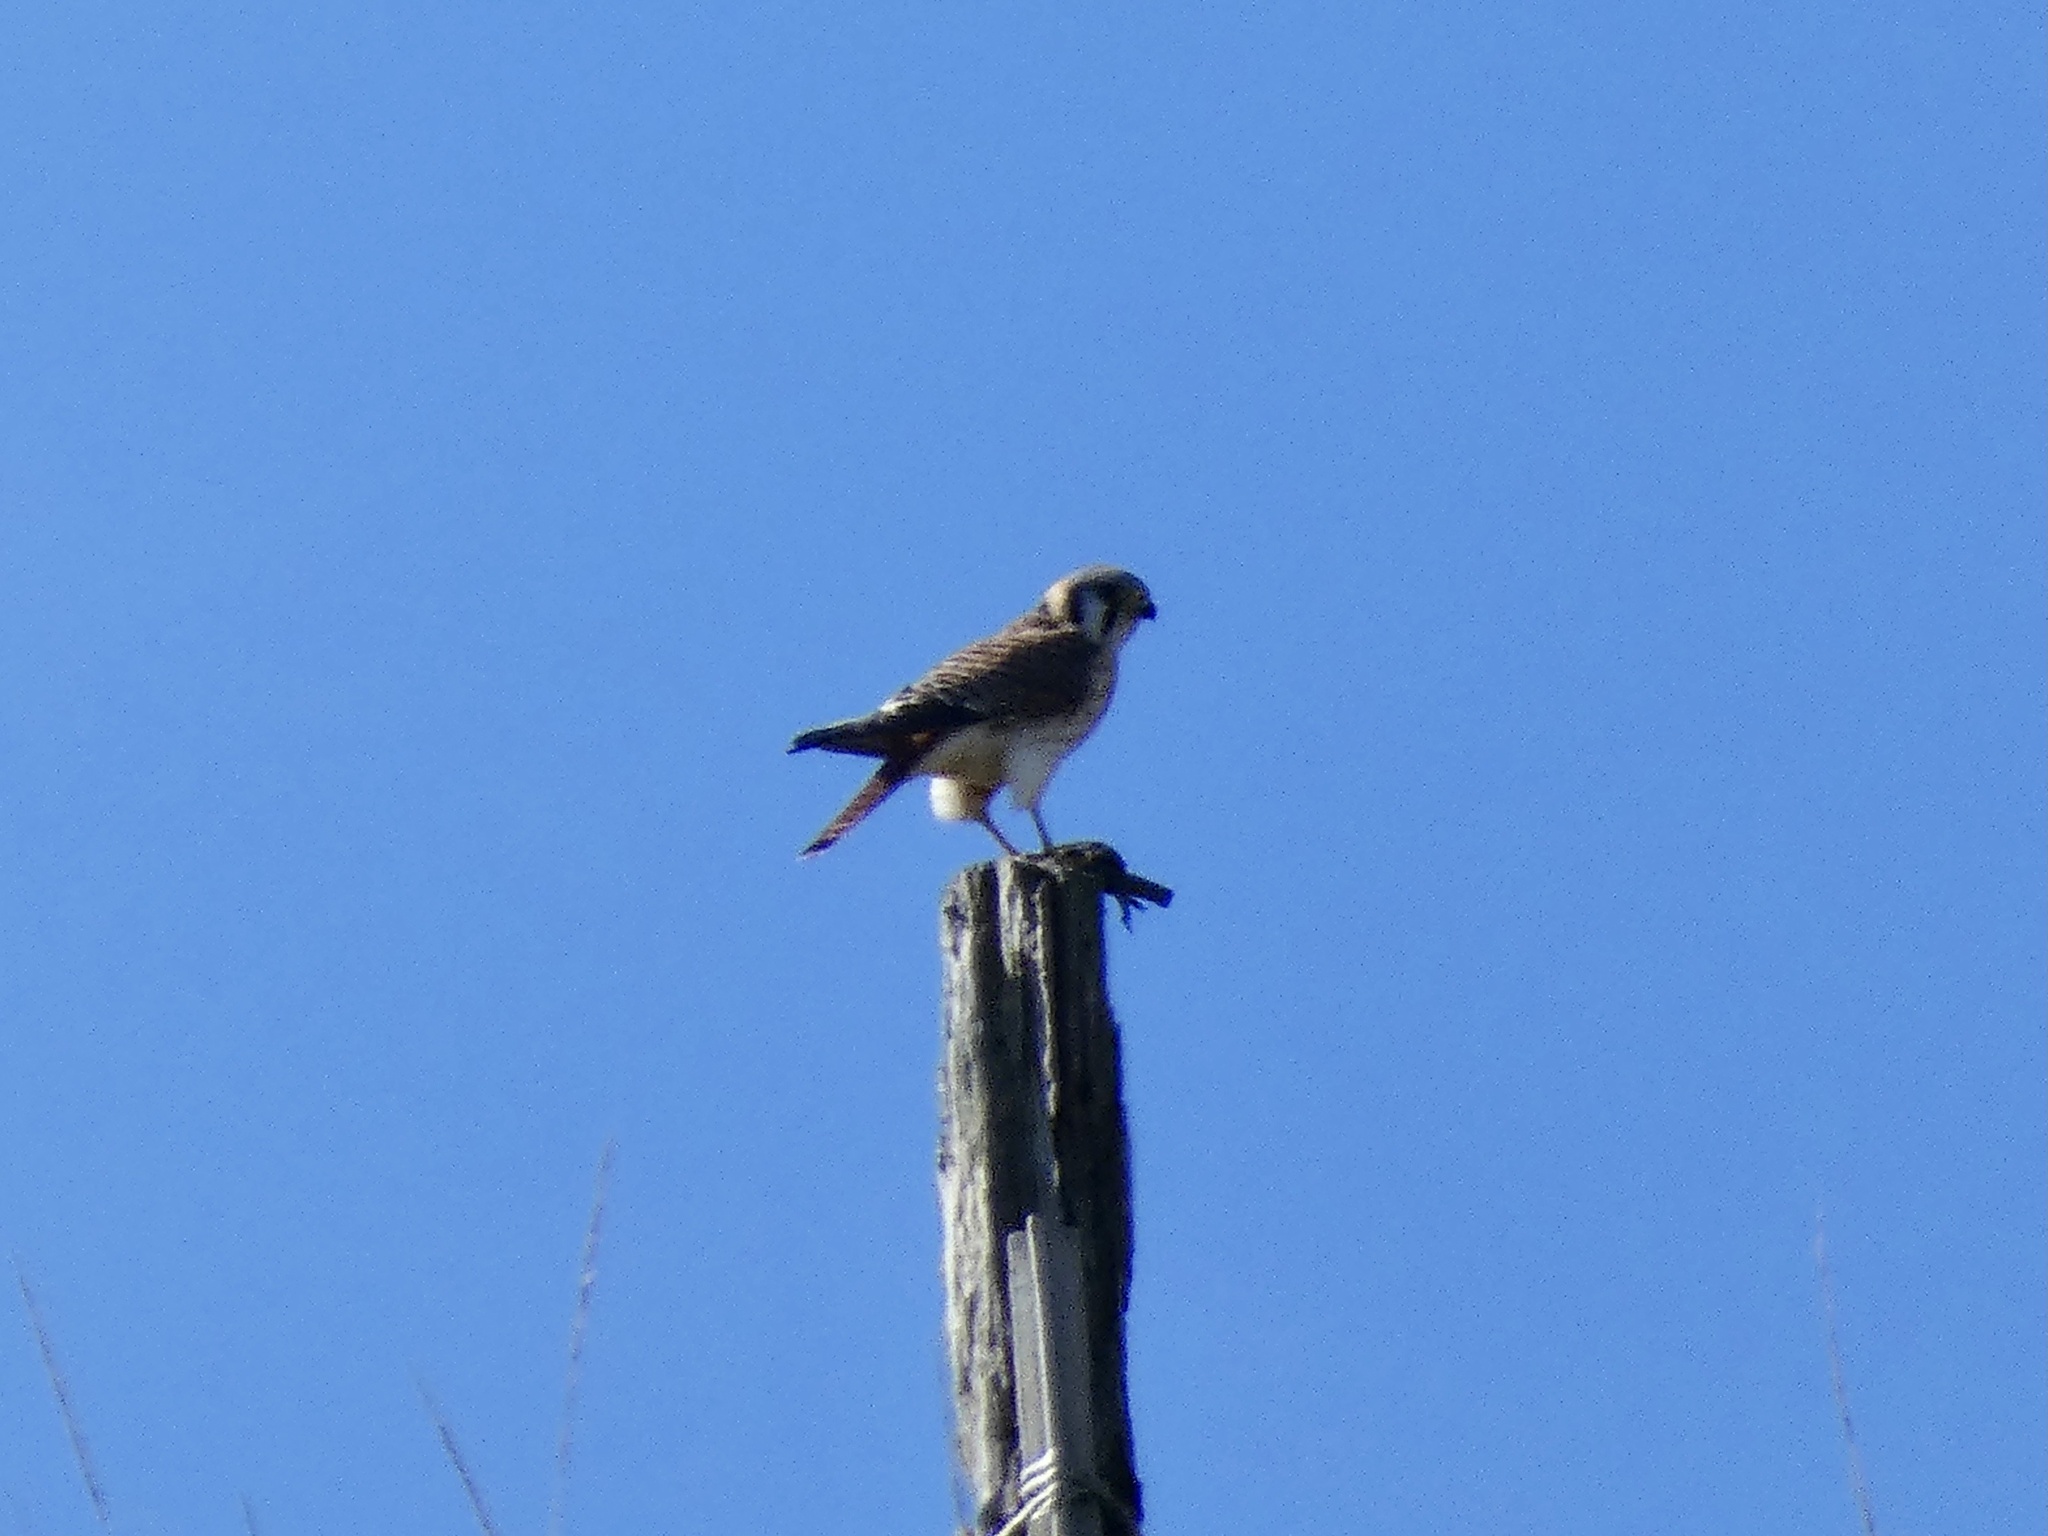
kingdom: Animalia
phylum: Chordata
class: Aves
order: Falconiformes
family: Falconidae
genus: Falco
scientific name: Falco sparverius
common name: American kestrel
